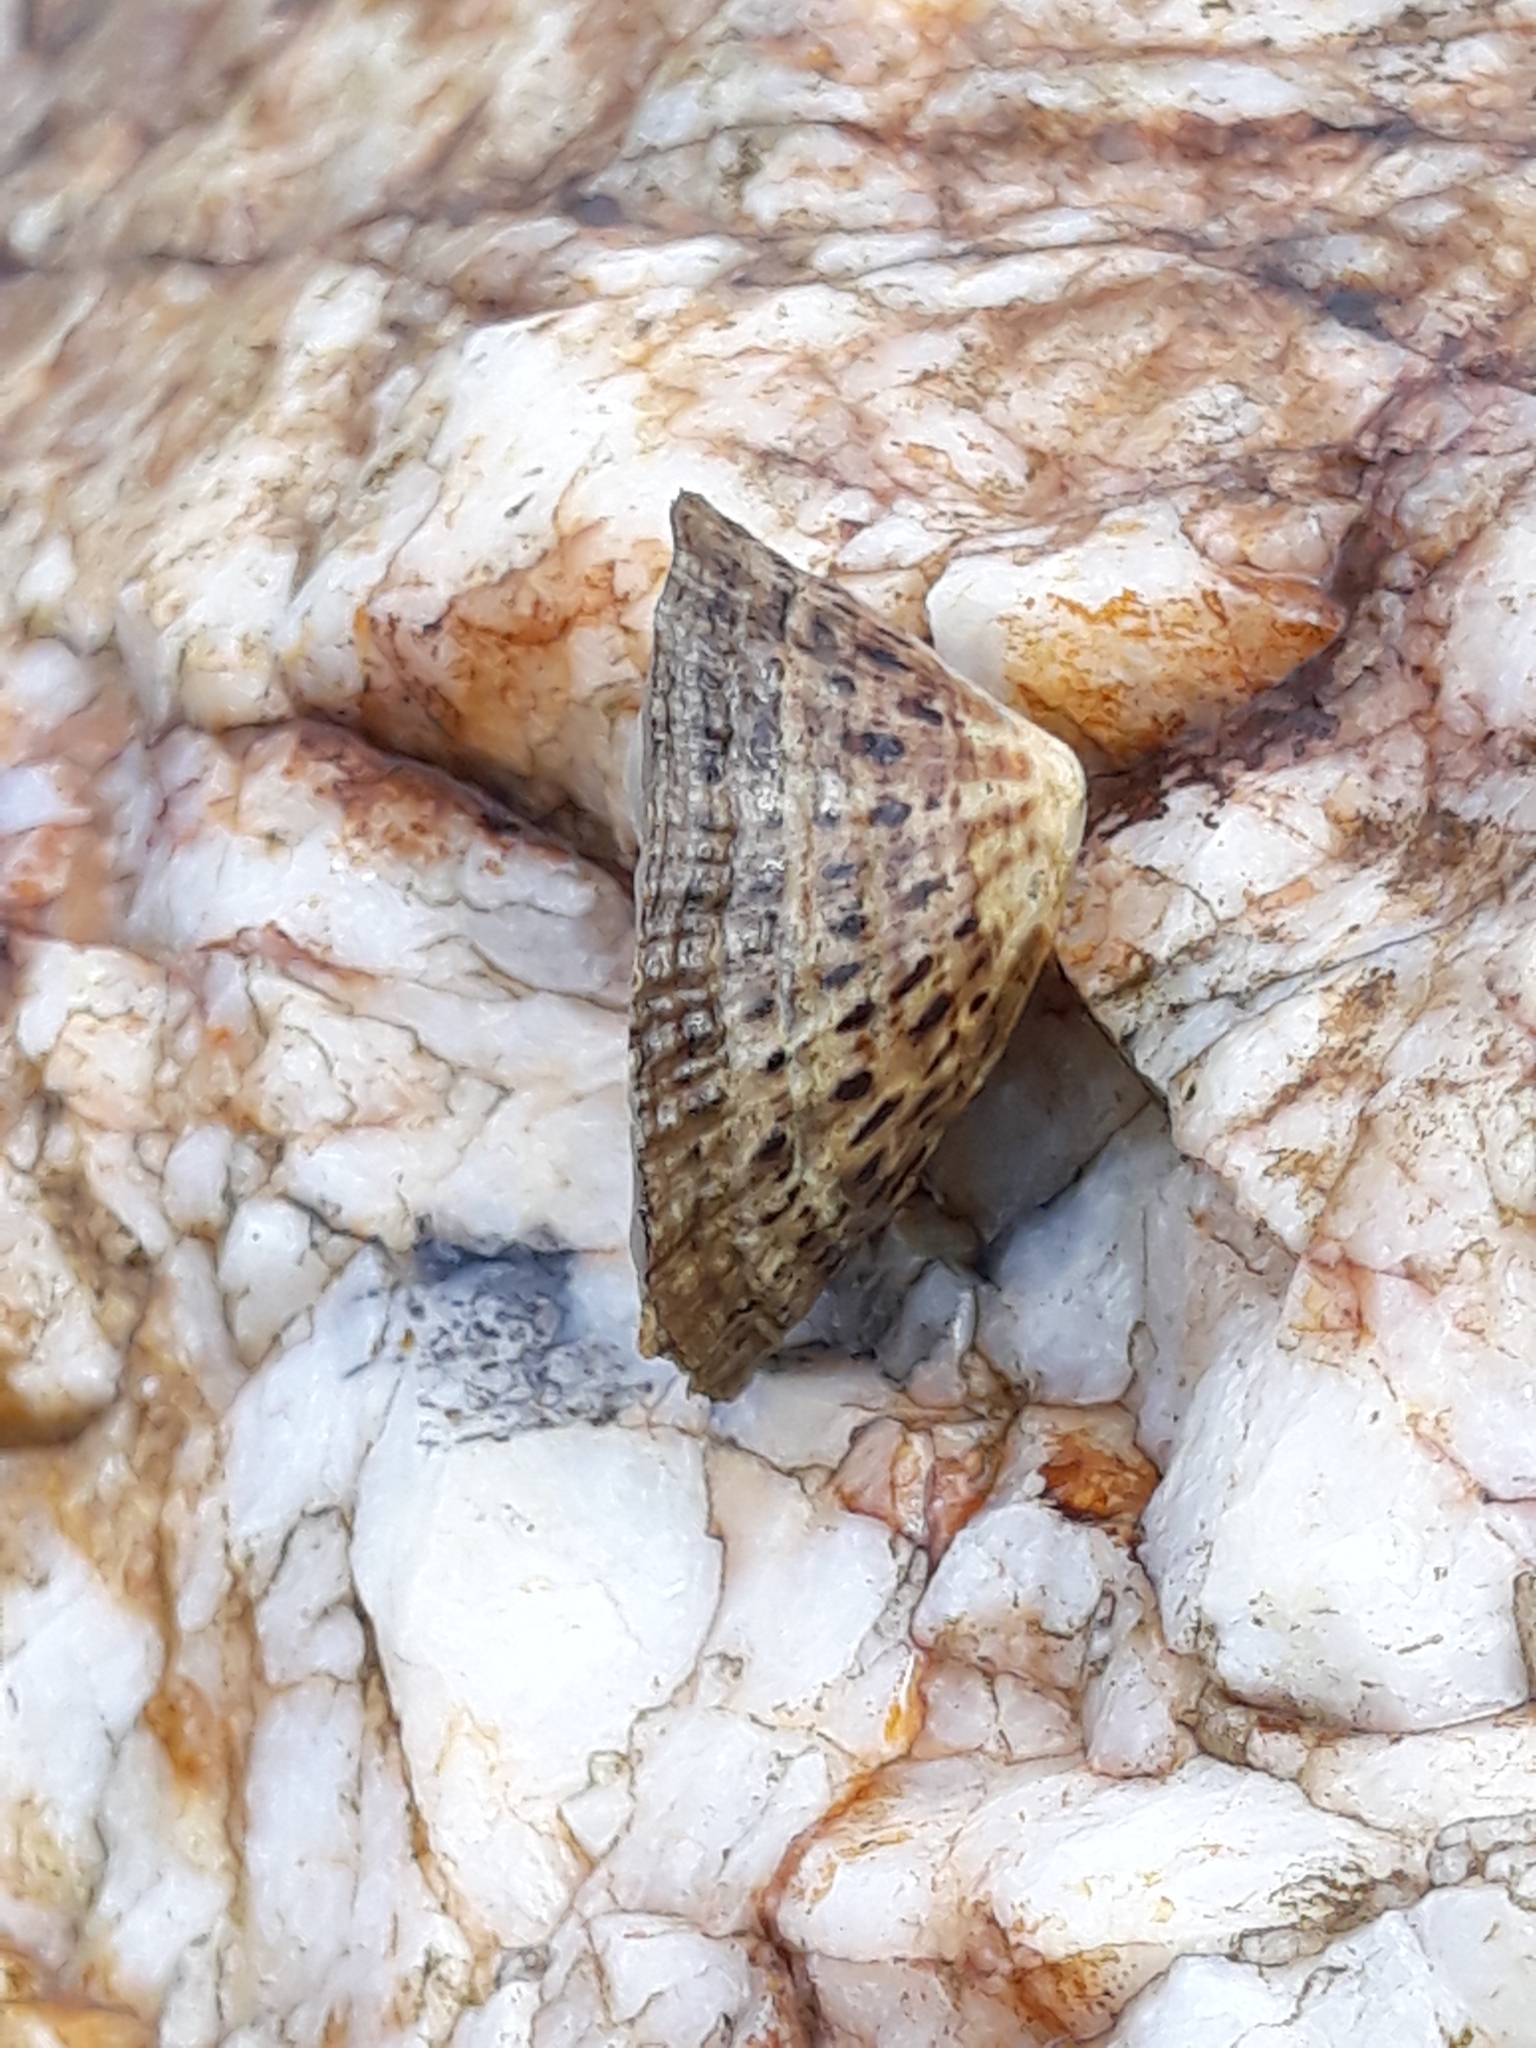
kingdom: Animalia
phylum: Mollusca
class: Gastropoda
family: Patellidae
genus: Patella
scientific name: Patella rustica
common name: Lusitanian limpet
